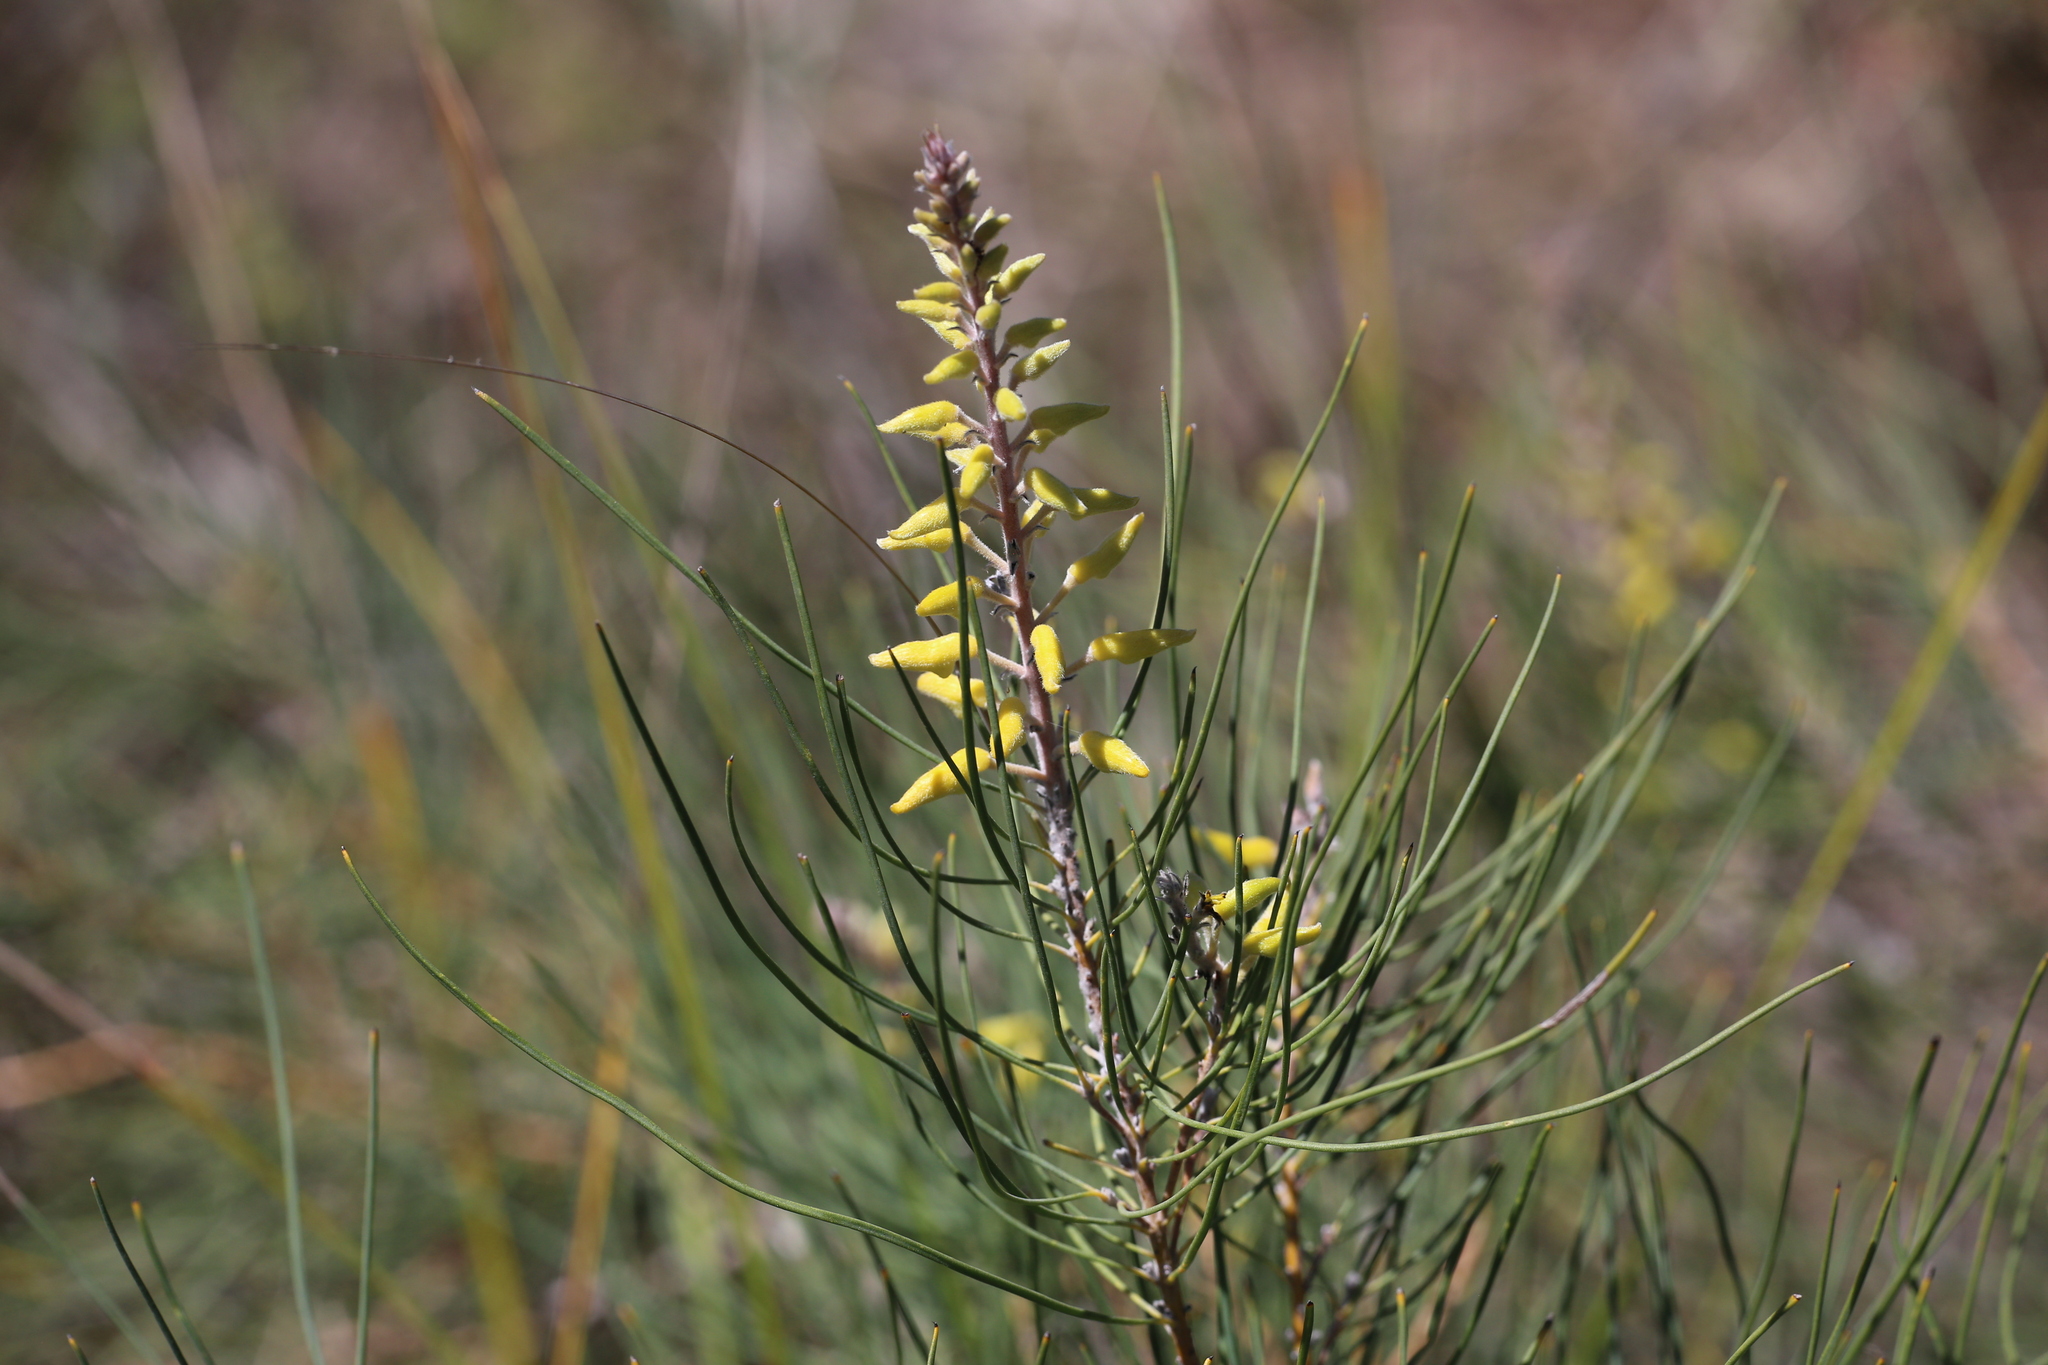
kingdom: Plantae
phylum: Tracheophyta
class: Magnoliopsida
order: Proteales
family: Proteaceae
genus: Persoonia
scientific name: Persoonia saccata
